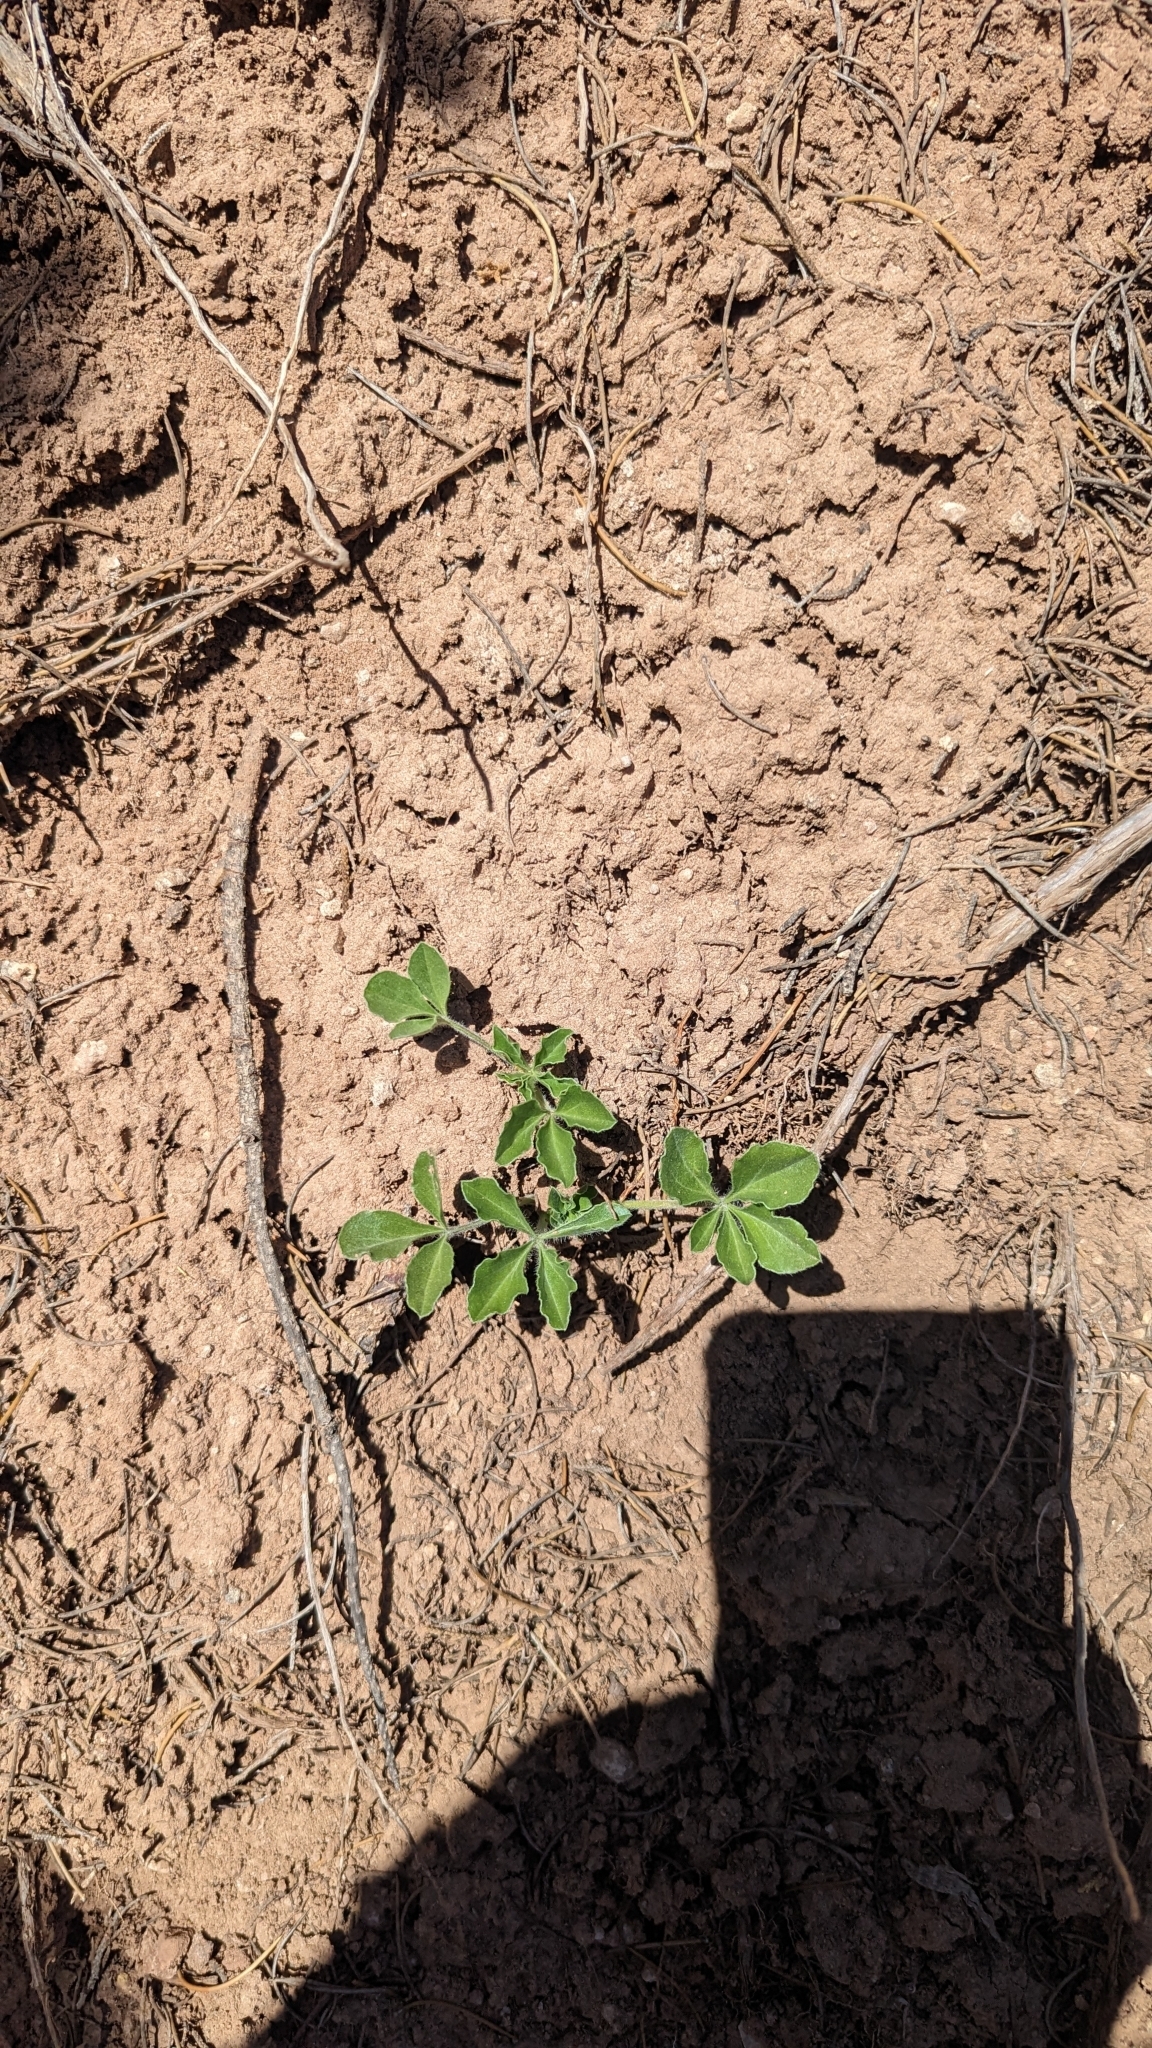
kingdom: Plantae
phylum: Tracheophyta
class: Magnoliopsida
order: Fabales
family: Fabaceae
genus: Pediomelum
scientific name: Pediomelum mephiticum
